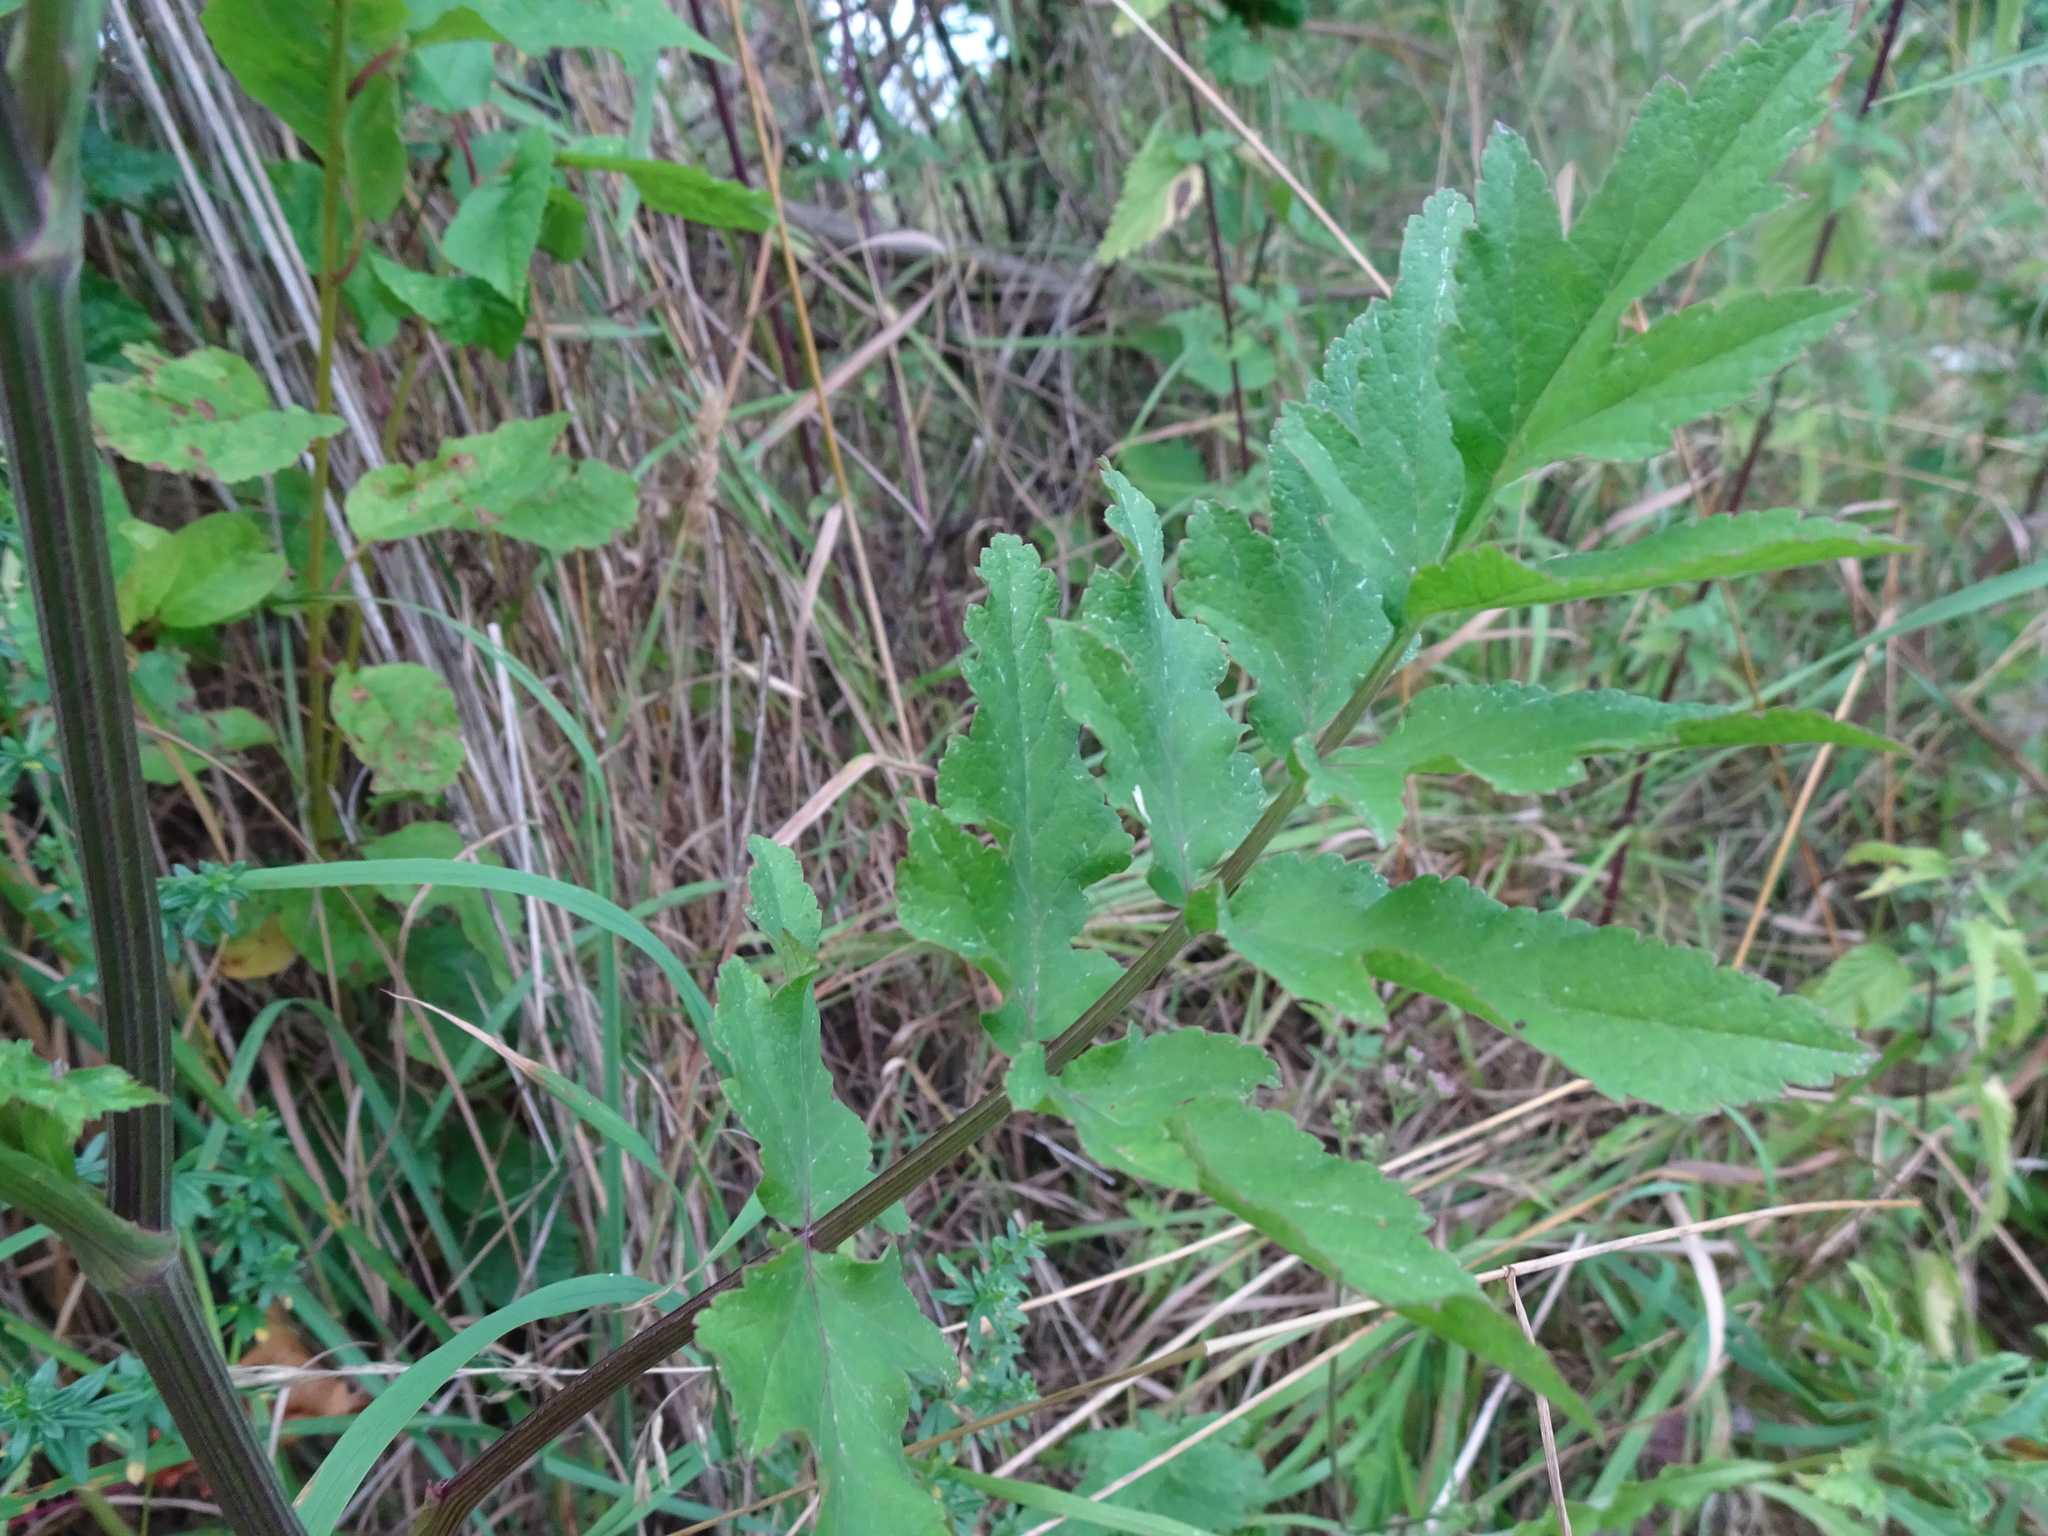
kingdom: Plantae
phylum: Tracheophyta
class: Magnoliopsida
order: Apiales
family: Apiaceae
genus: Pastinaca
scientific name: Pastinaca sativa
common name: Wild parsnip
